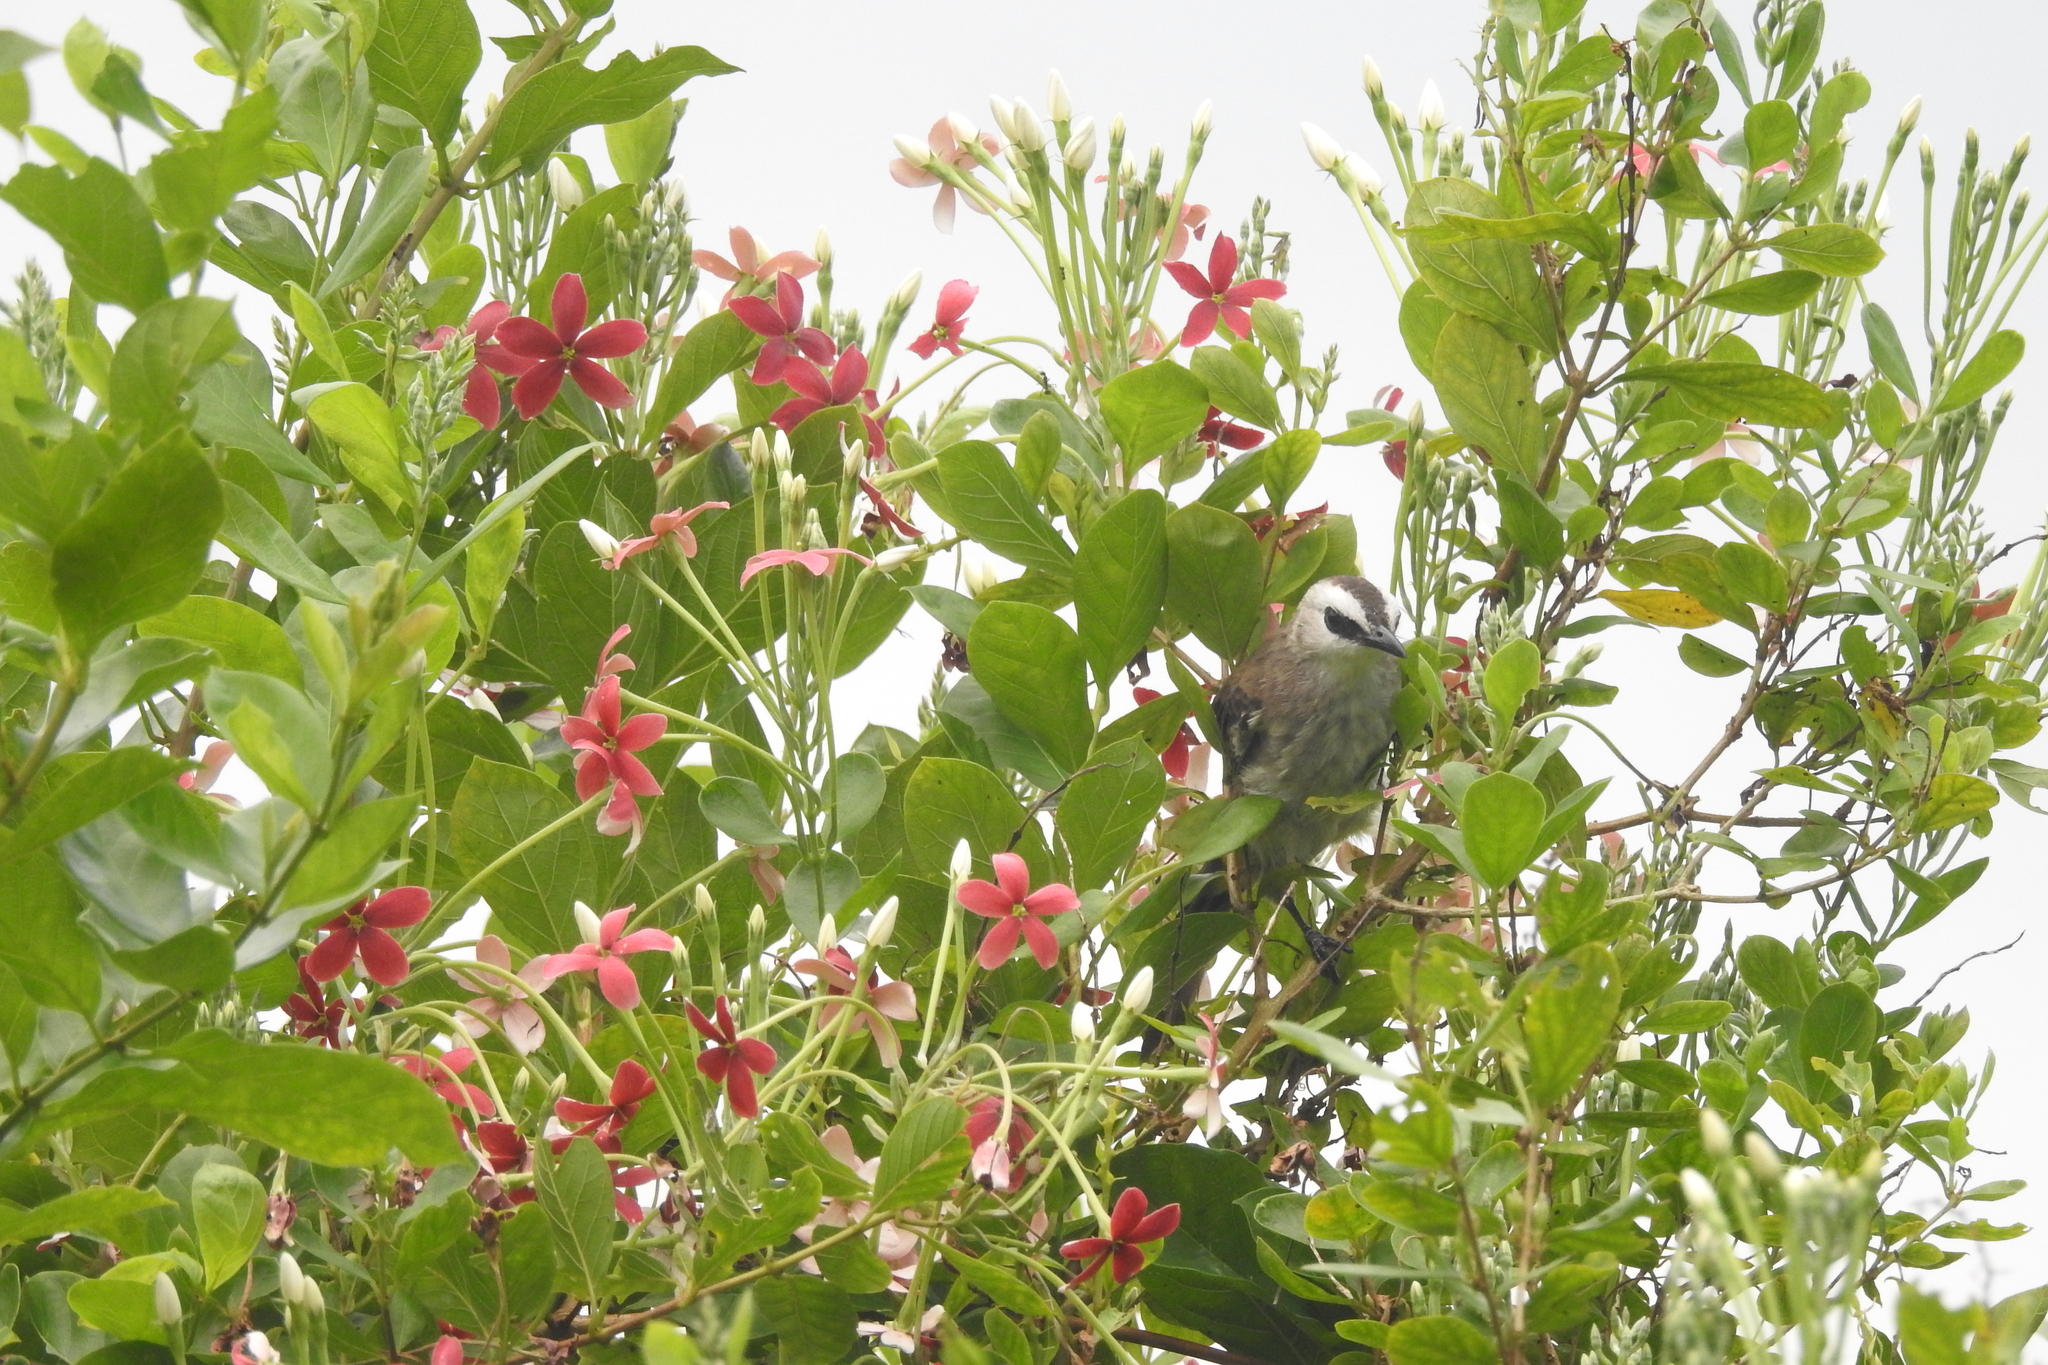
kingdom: Animalia
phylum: Chordata
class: Aves
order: Passeriformes
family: Pycnonotidae
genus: Pycnonotus
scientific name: Pycnonotus goiavier
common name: Yellow-vented bulbul
